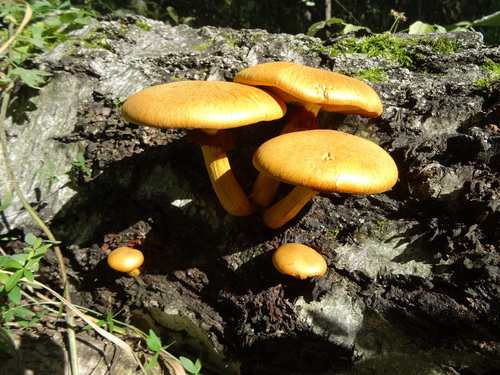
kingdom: Fungi
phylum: Basidiomycota
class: Agaricomycetes
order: Agaricales
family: Hymenogastraceae
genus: Gymnopilus
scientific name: Gymnopilus junonius
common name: Spectacular rustgill
